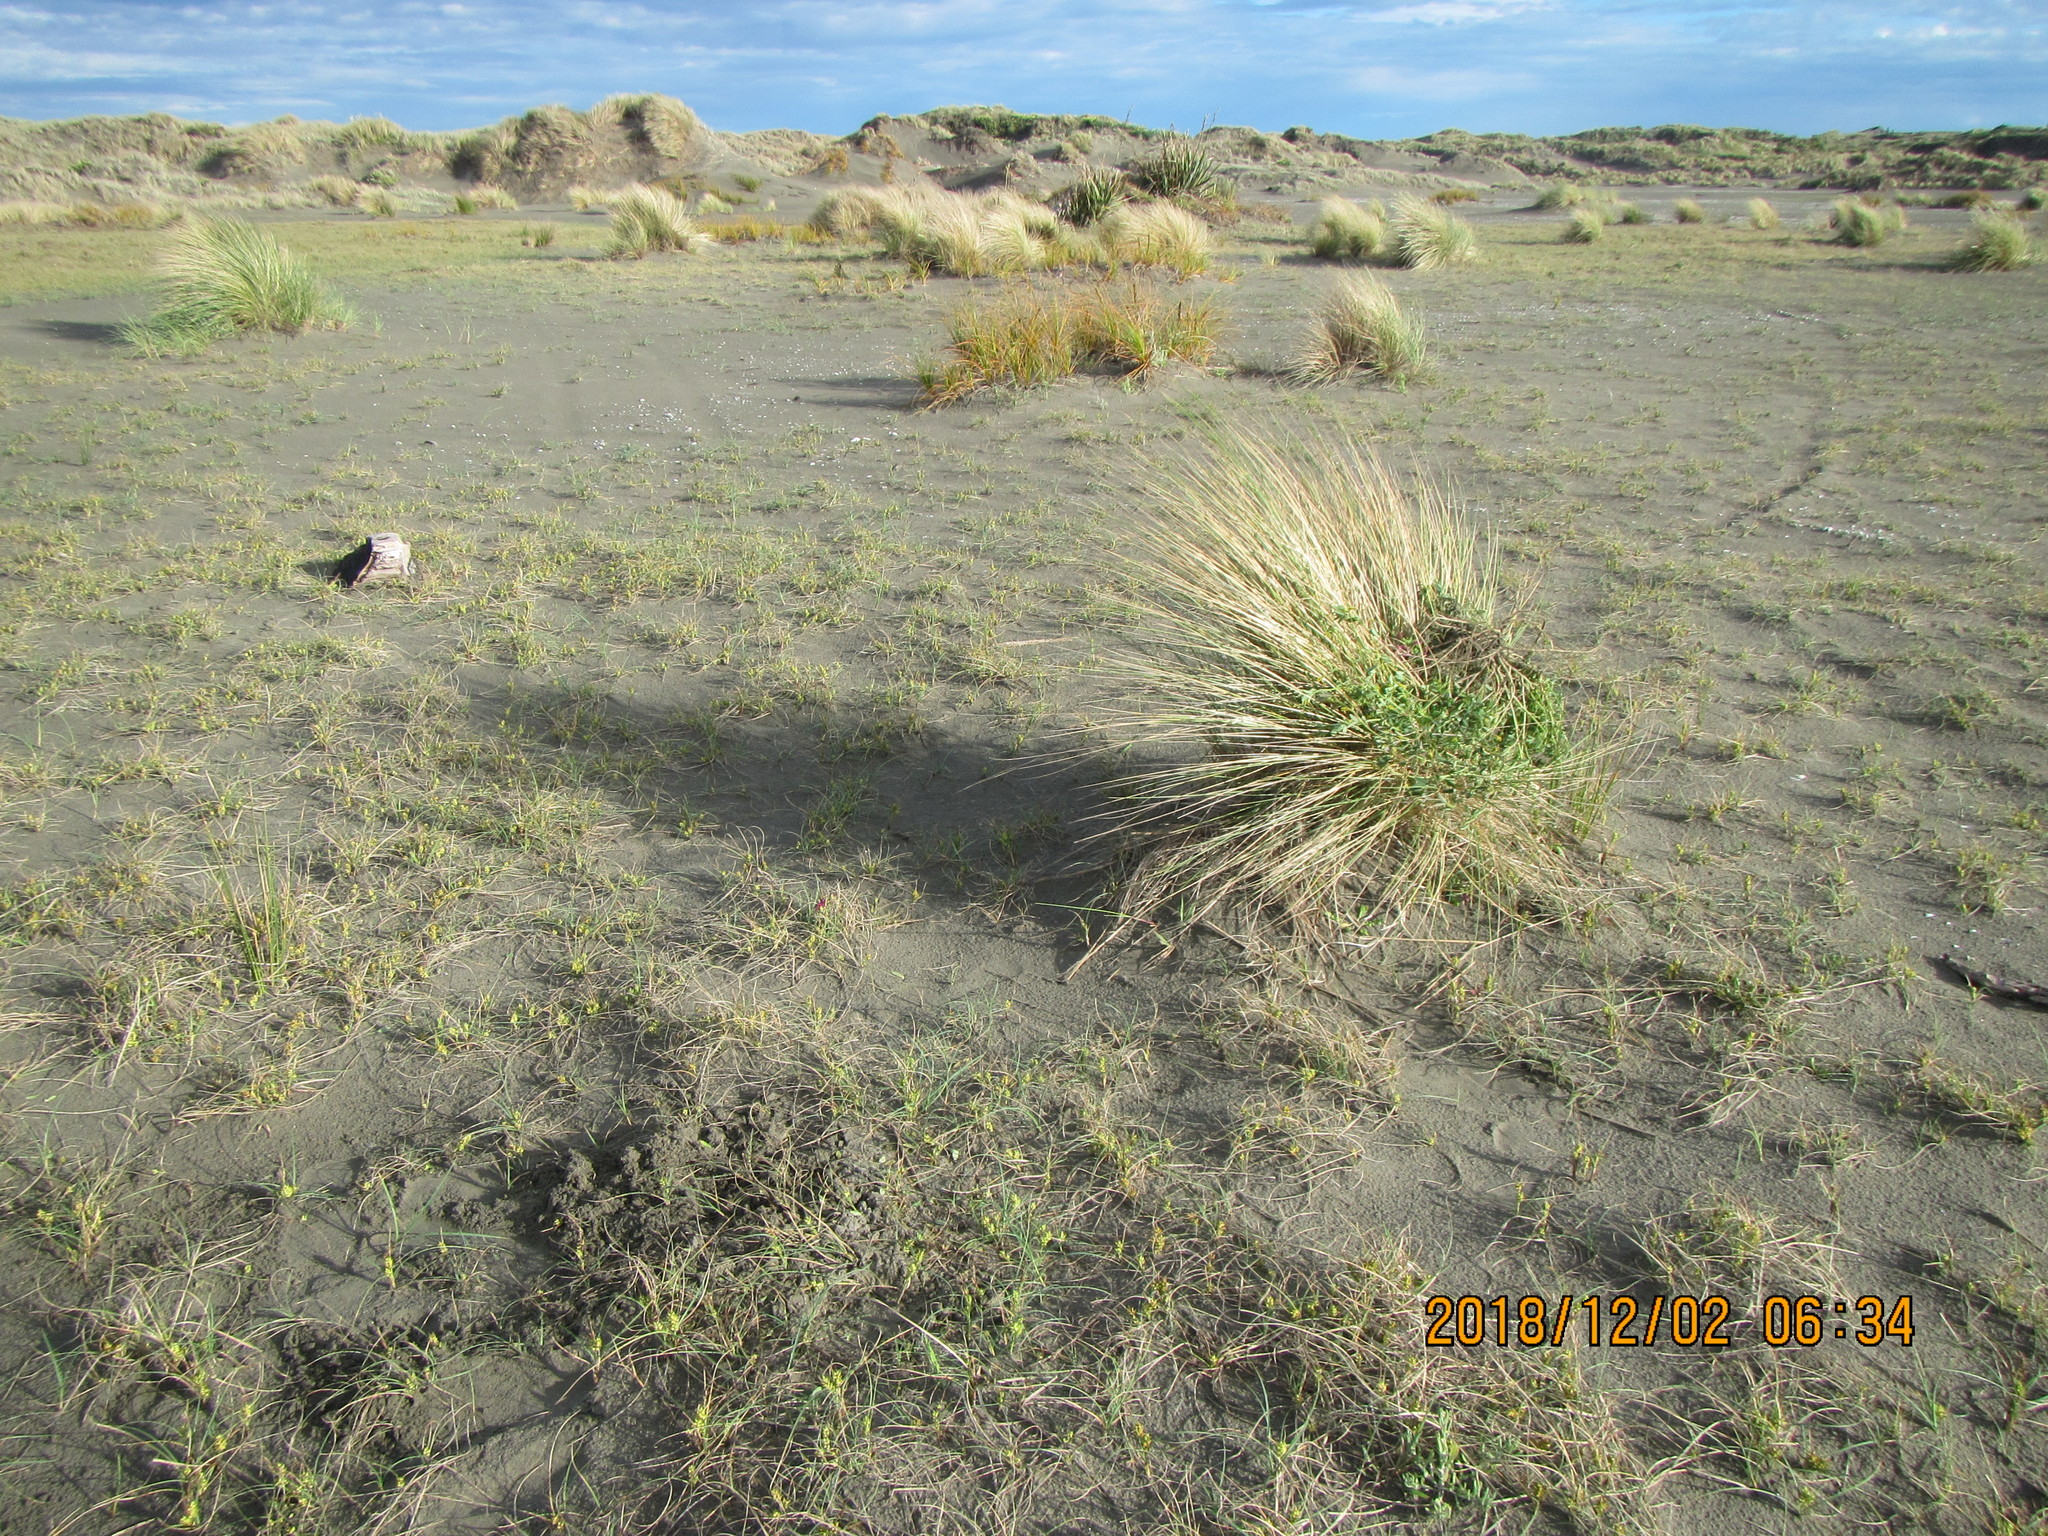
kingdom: Plantae
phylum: Tracheophyta
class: Magnoliopsida
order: Fabales
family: Fabaceae
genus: Melilotus
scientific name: Melilotus indicus
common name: Small melilot
